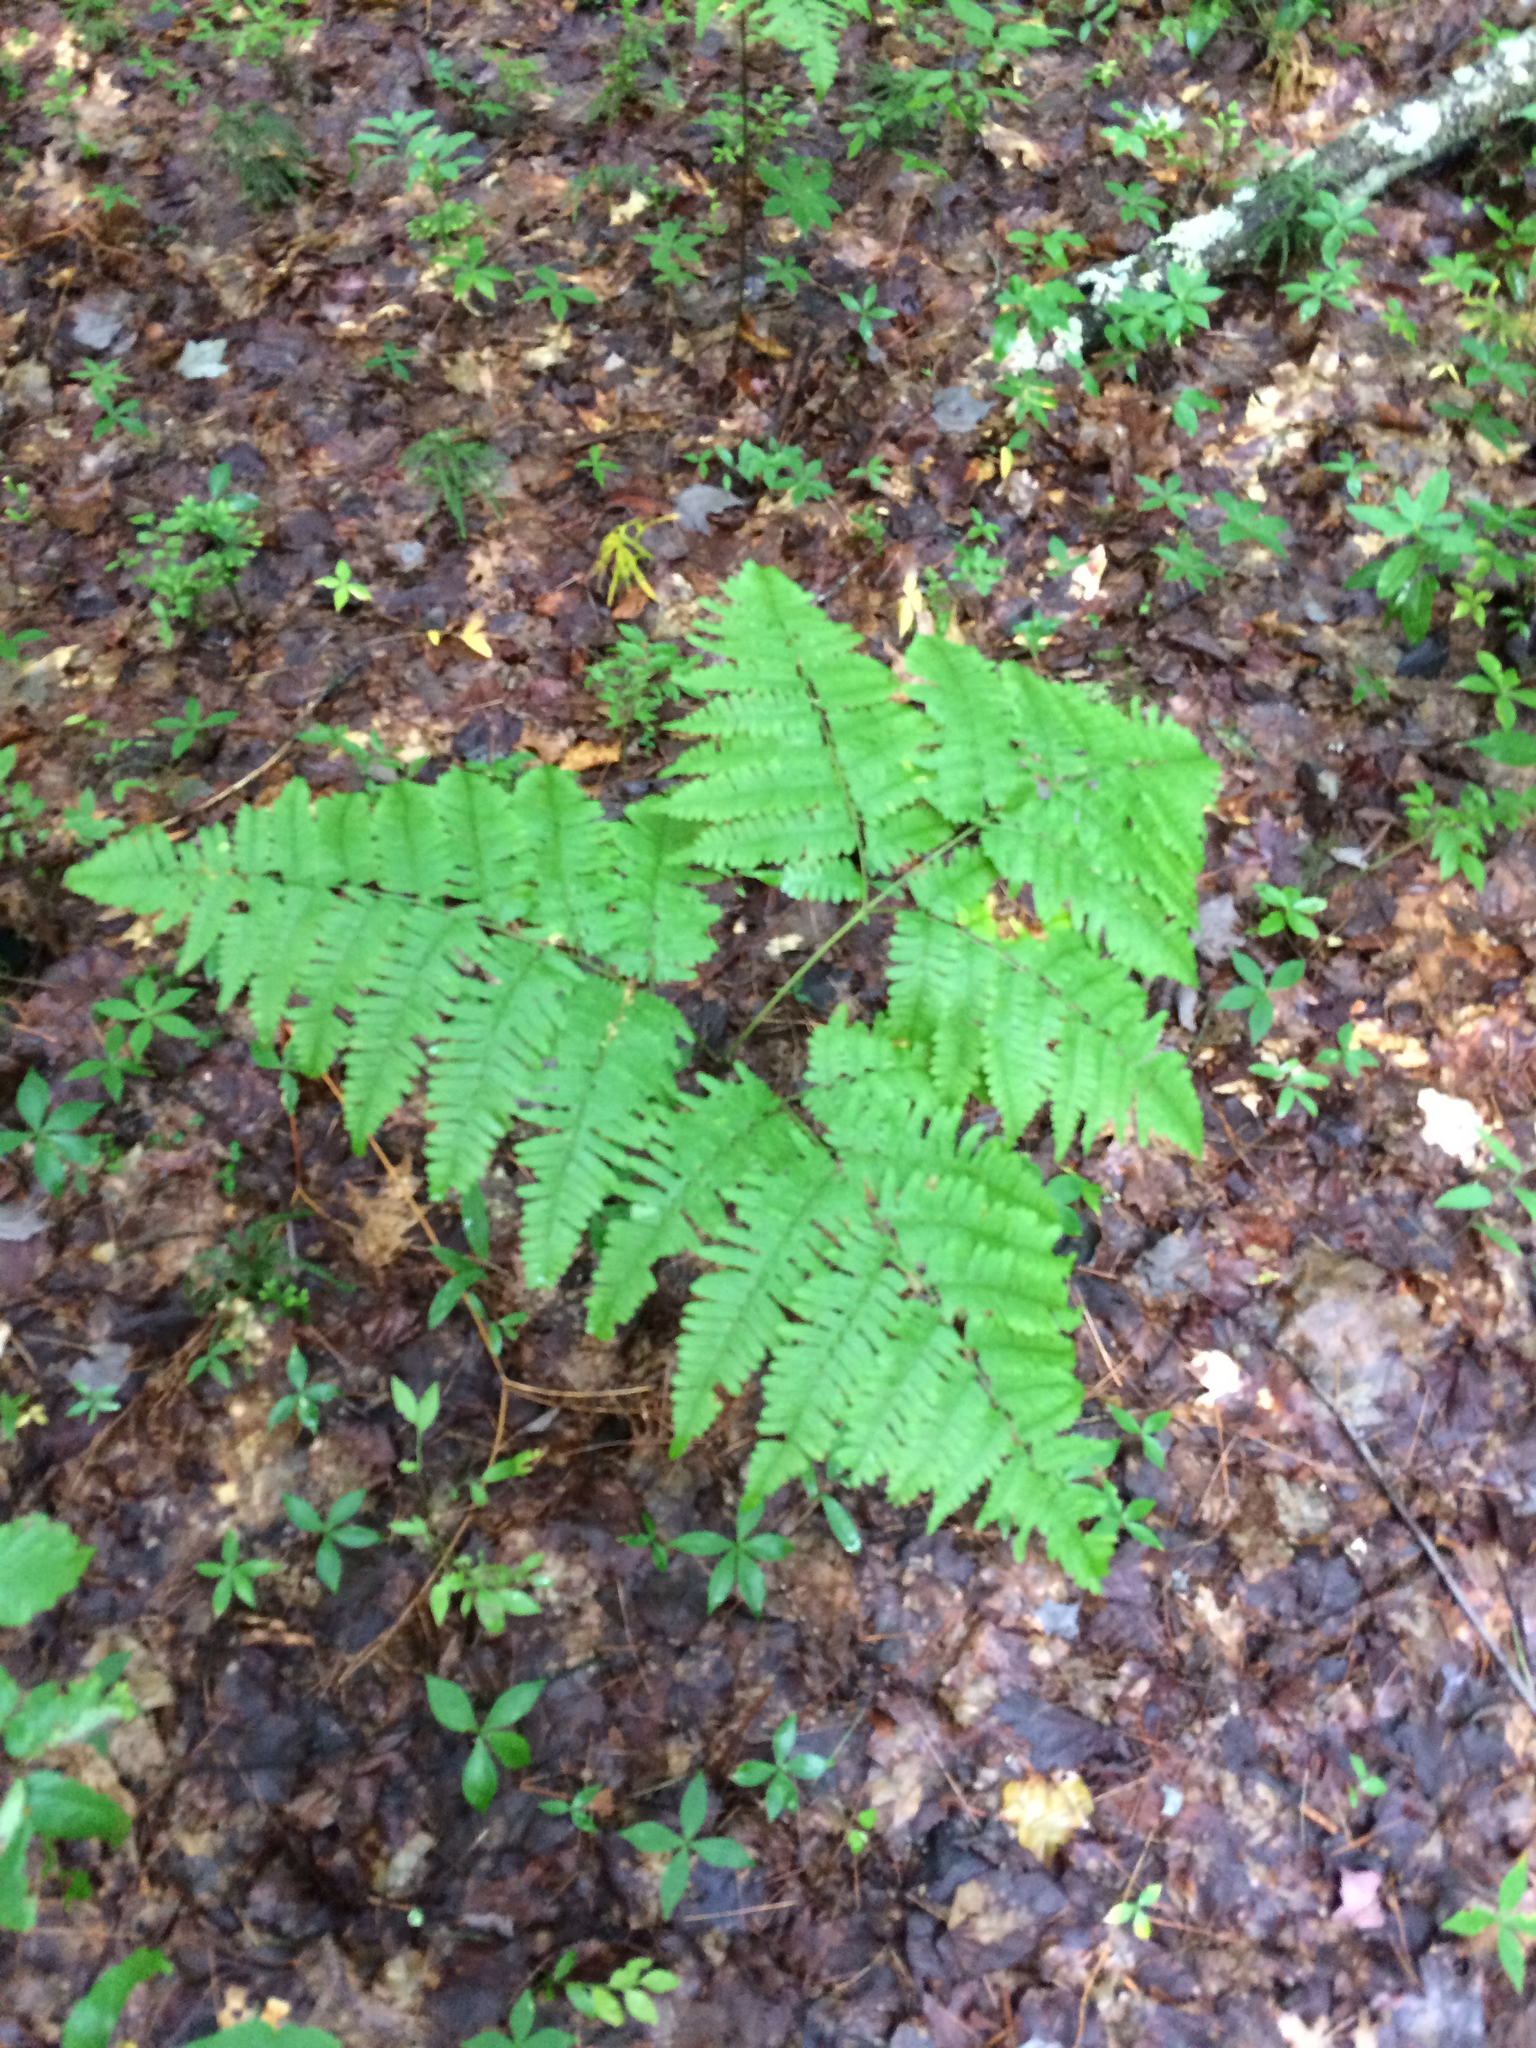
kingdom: Plantae
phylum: Tracheophyta
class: Polypodiopsida
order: Polypodiales
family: Dennstaedtiaceae
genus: Pteridium
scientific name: Pteridium aquilinum
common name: Bracken
